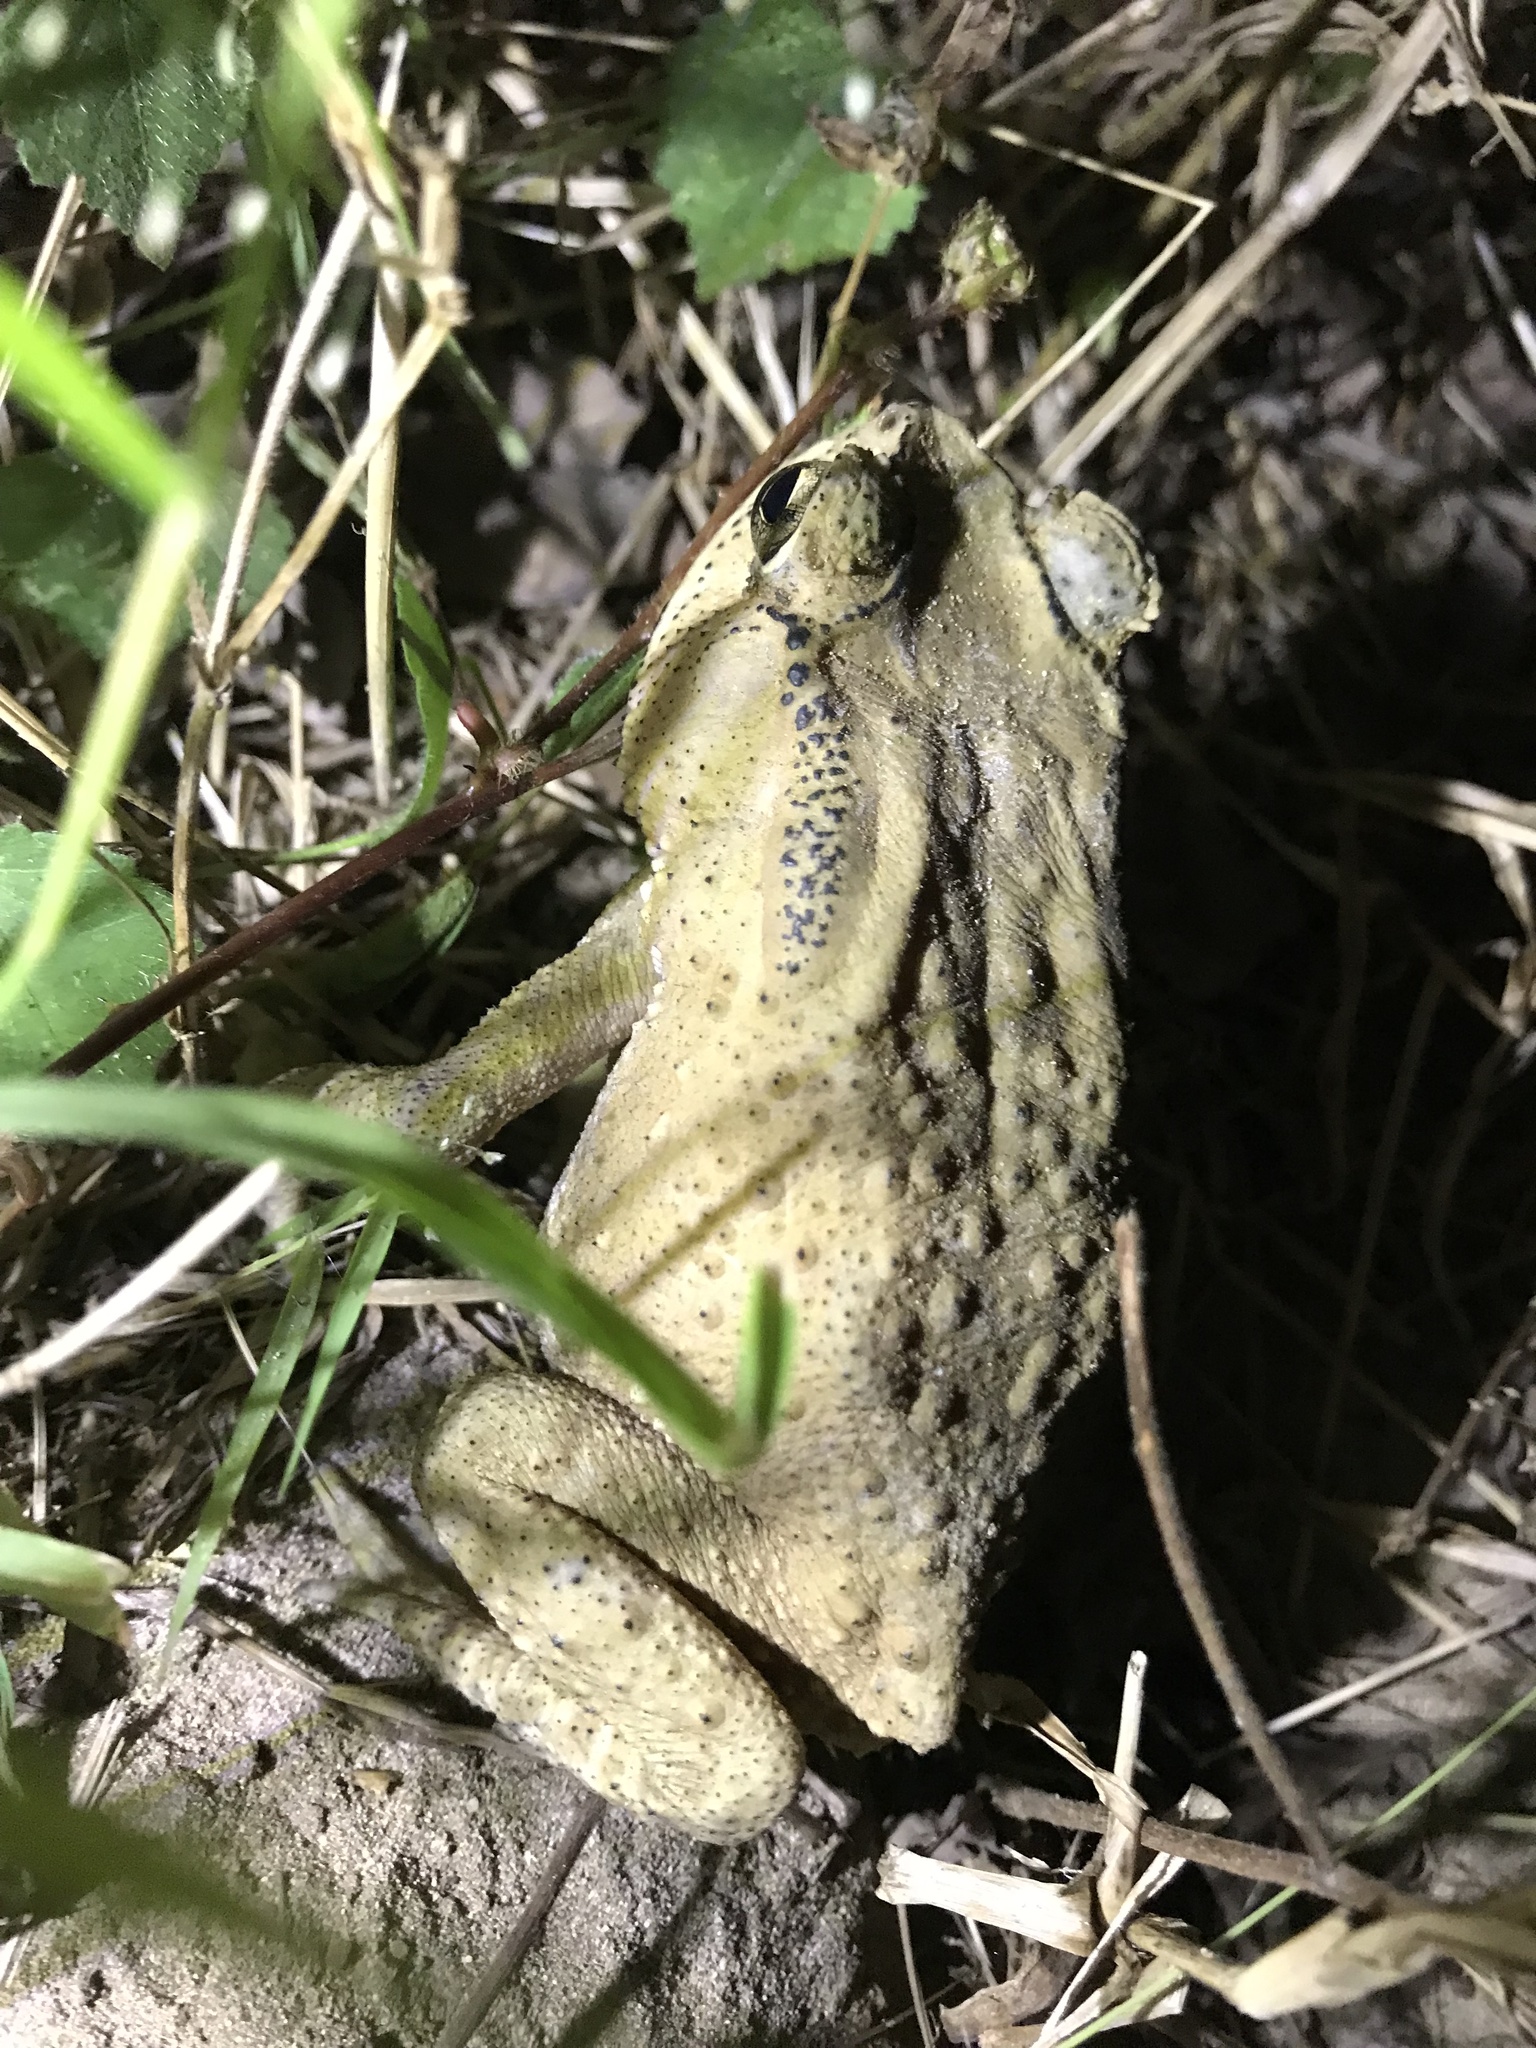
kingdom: Animalia
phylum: Chordata
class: Amphibia
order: Anura
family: Bufonidae
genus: Duttaphrynus
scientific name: Duttaphrynus melanostictus
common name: Common sunda toad
